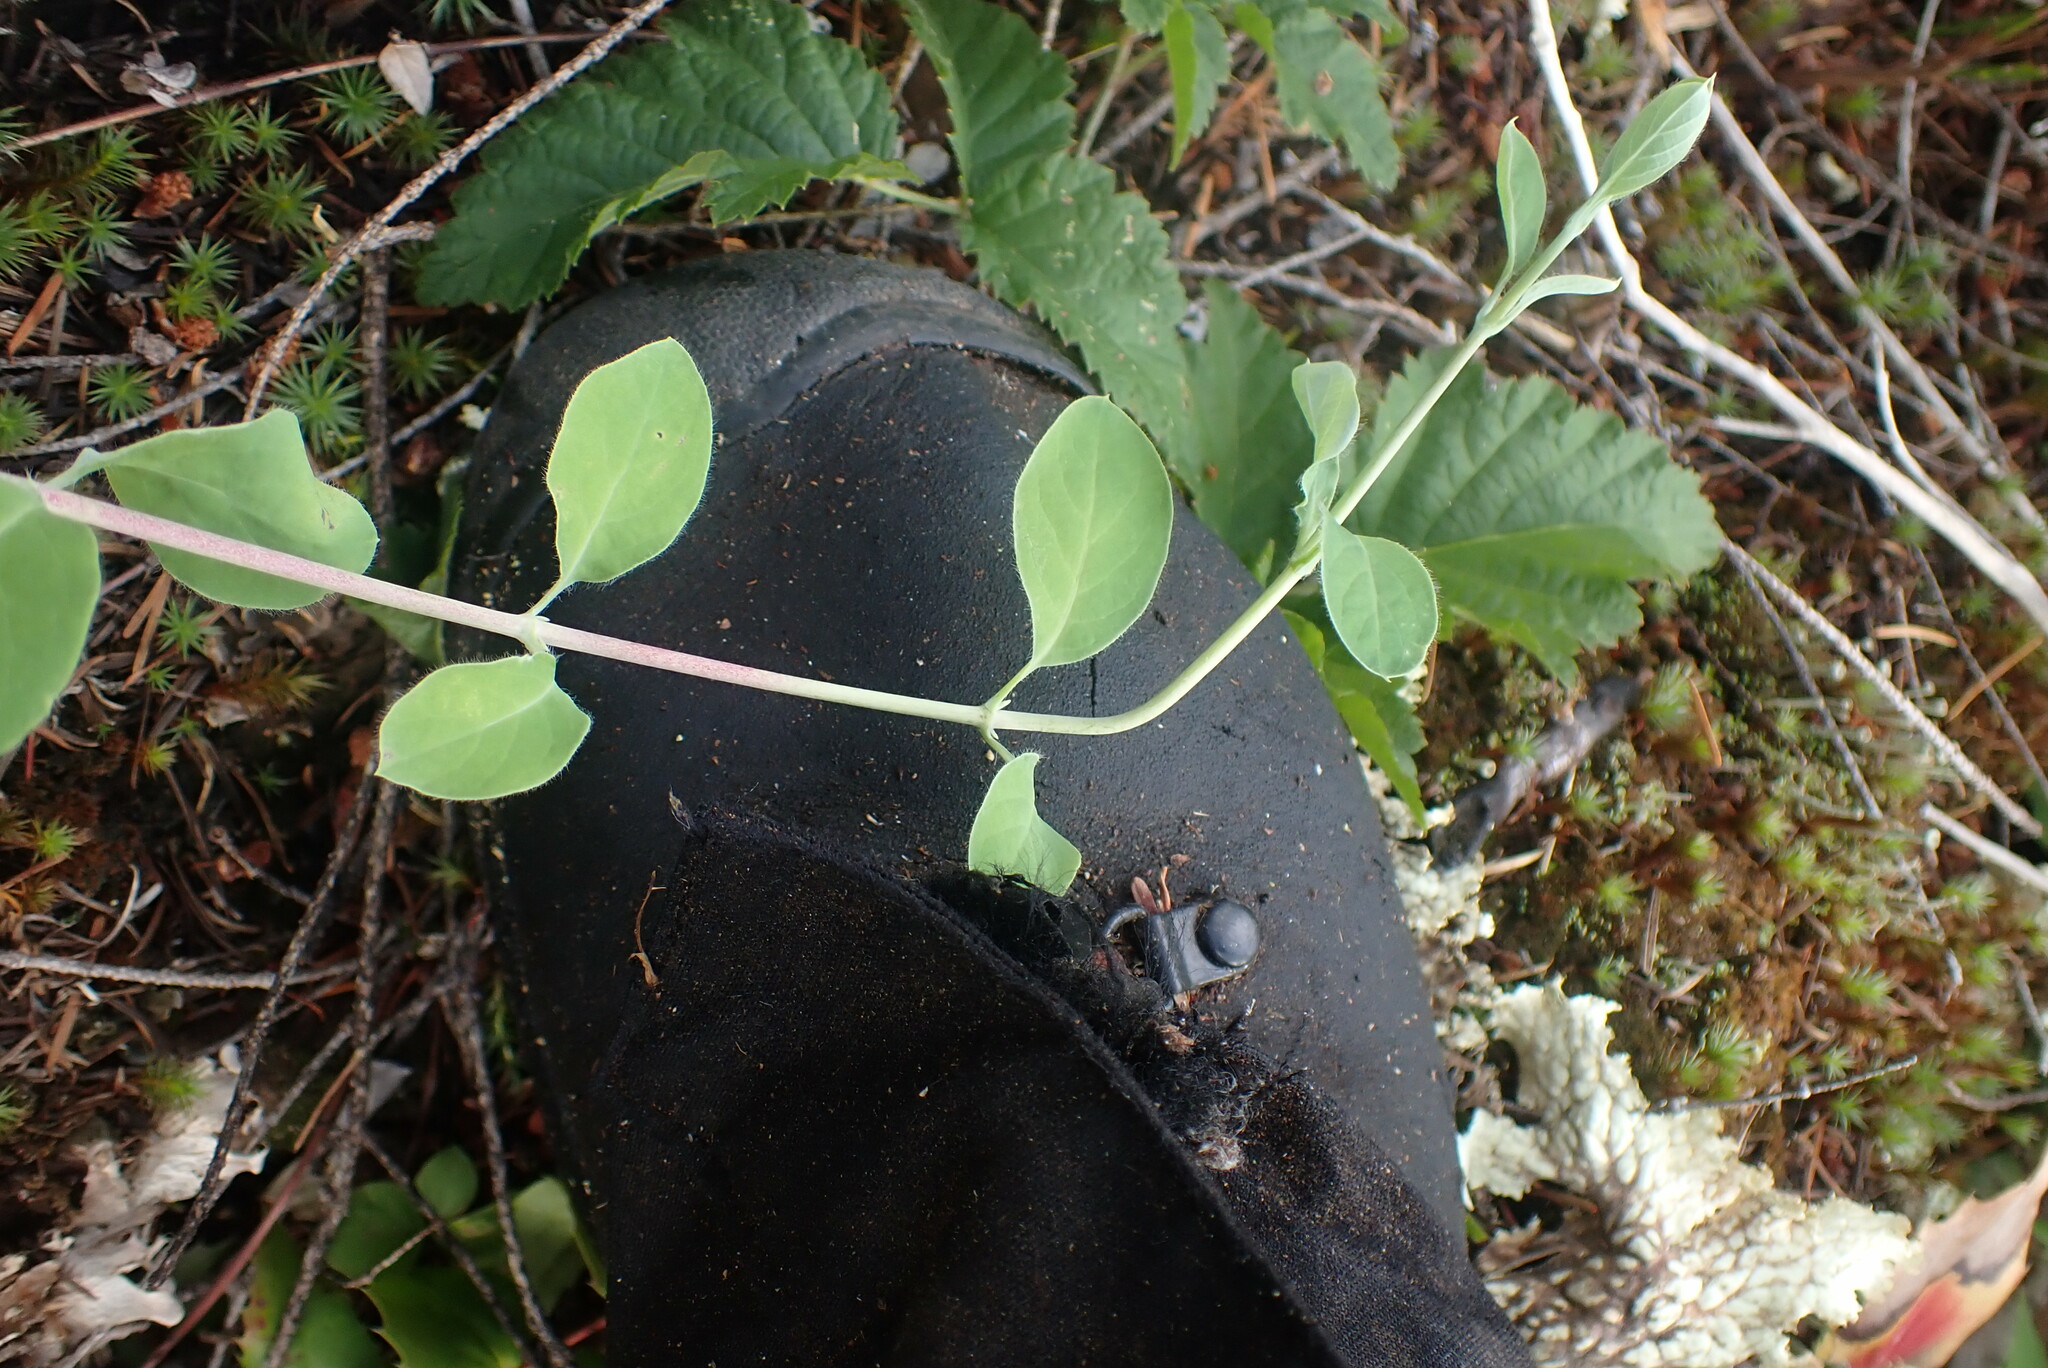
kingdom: Plantae
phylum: Tracheophyta
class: Magnoliopsida
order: Dipsacales
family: Caprifoliaceae
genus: Lonicera
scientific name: Lonicera ciliosa
